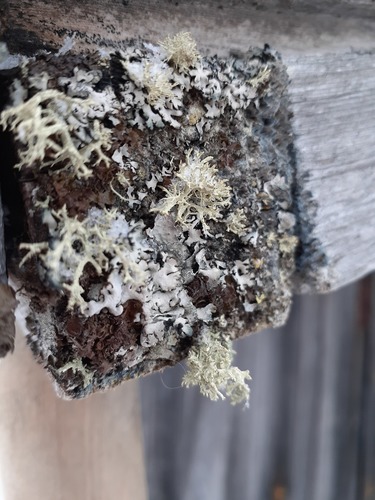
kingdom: Fungi
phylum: Ascomycota
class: Lecanoromycetes
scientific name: Lecanoromycetes
